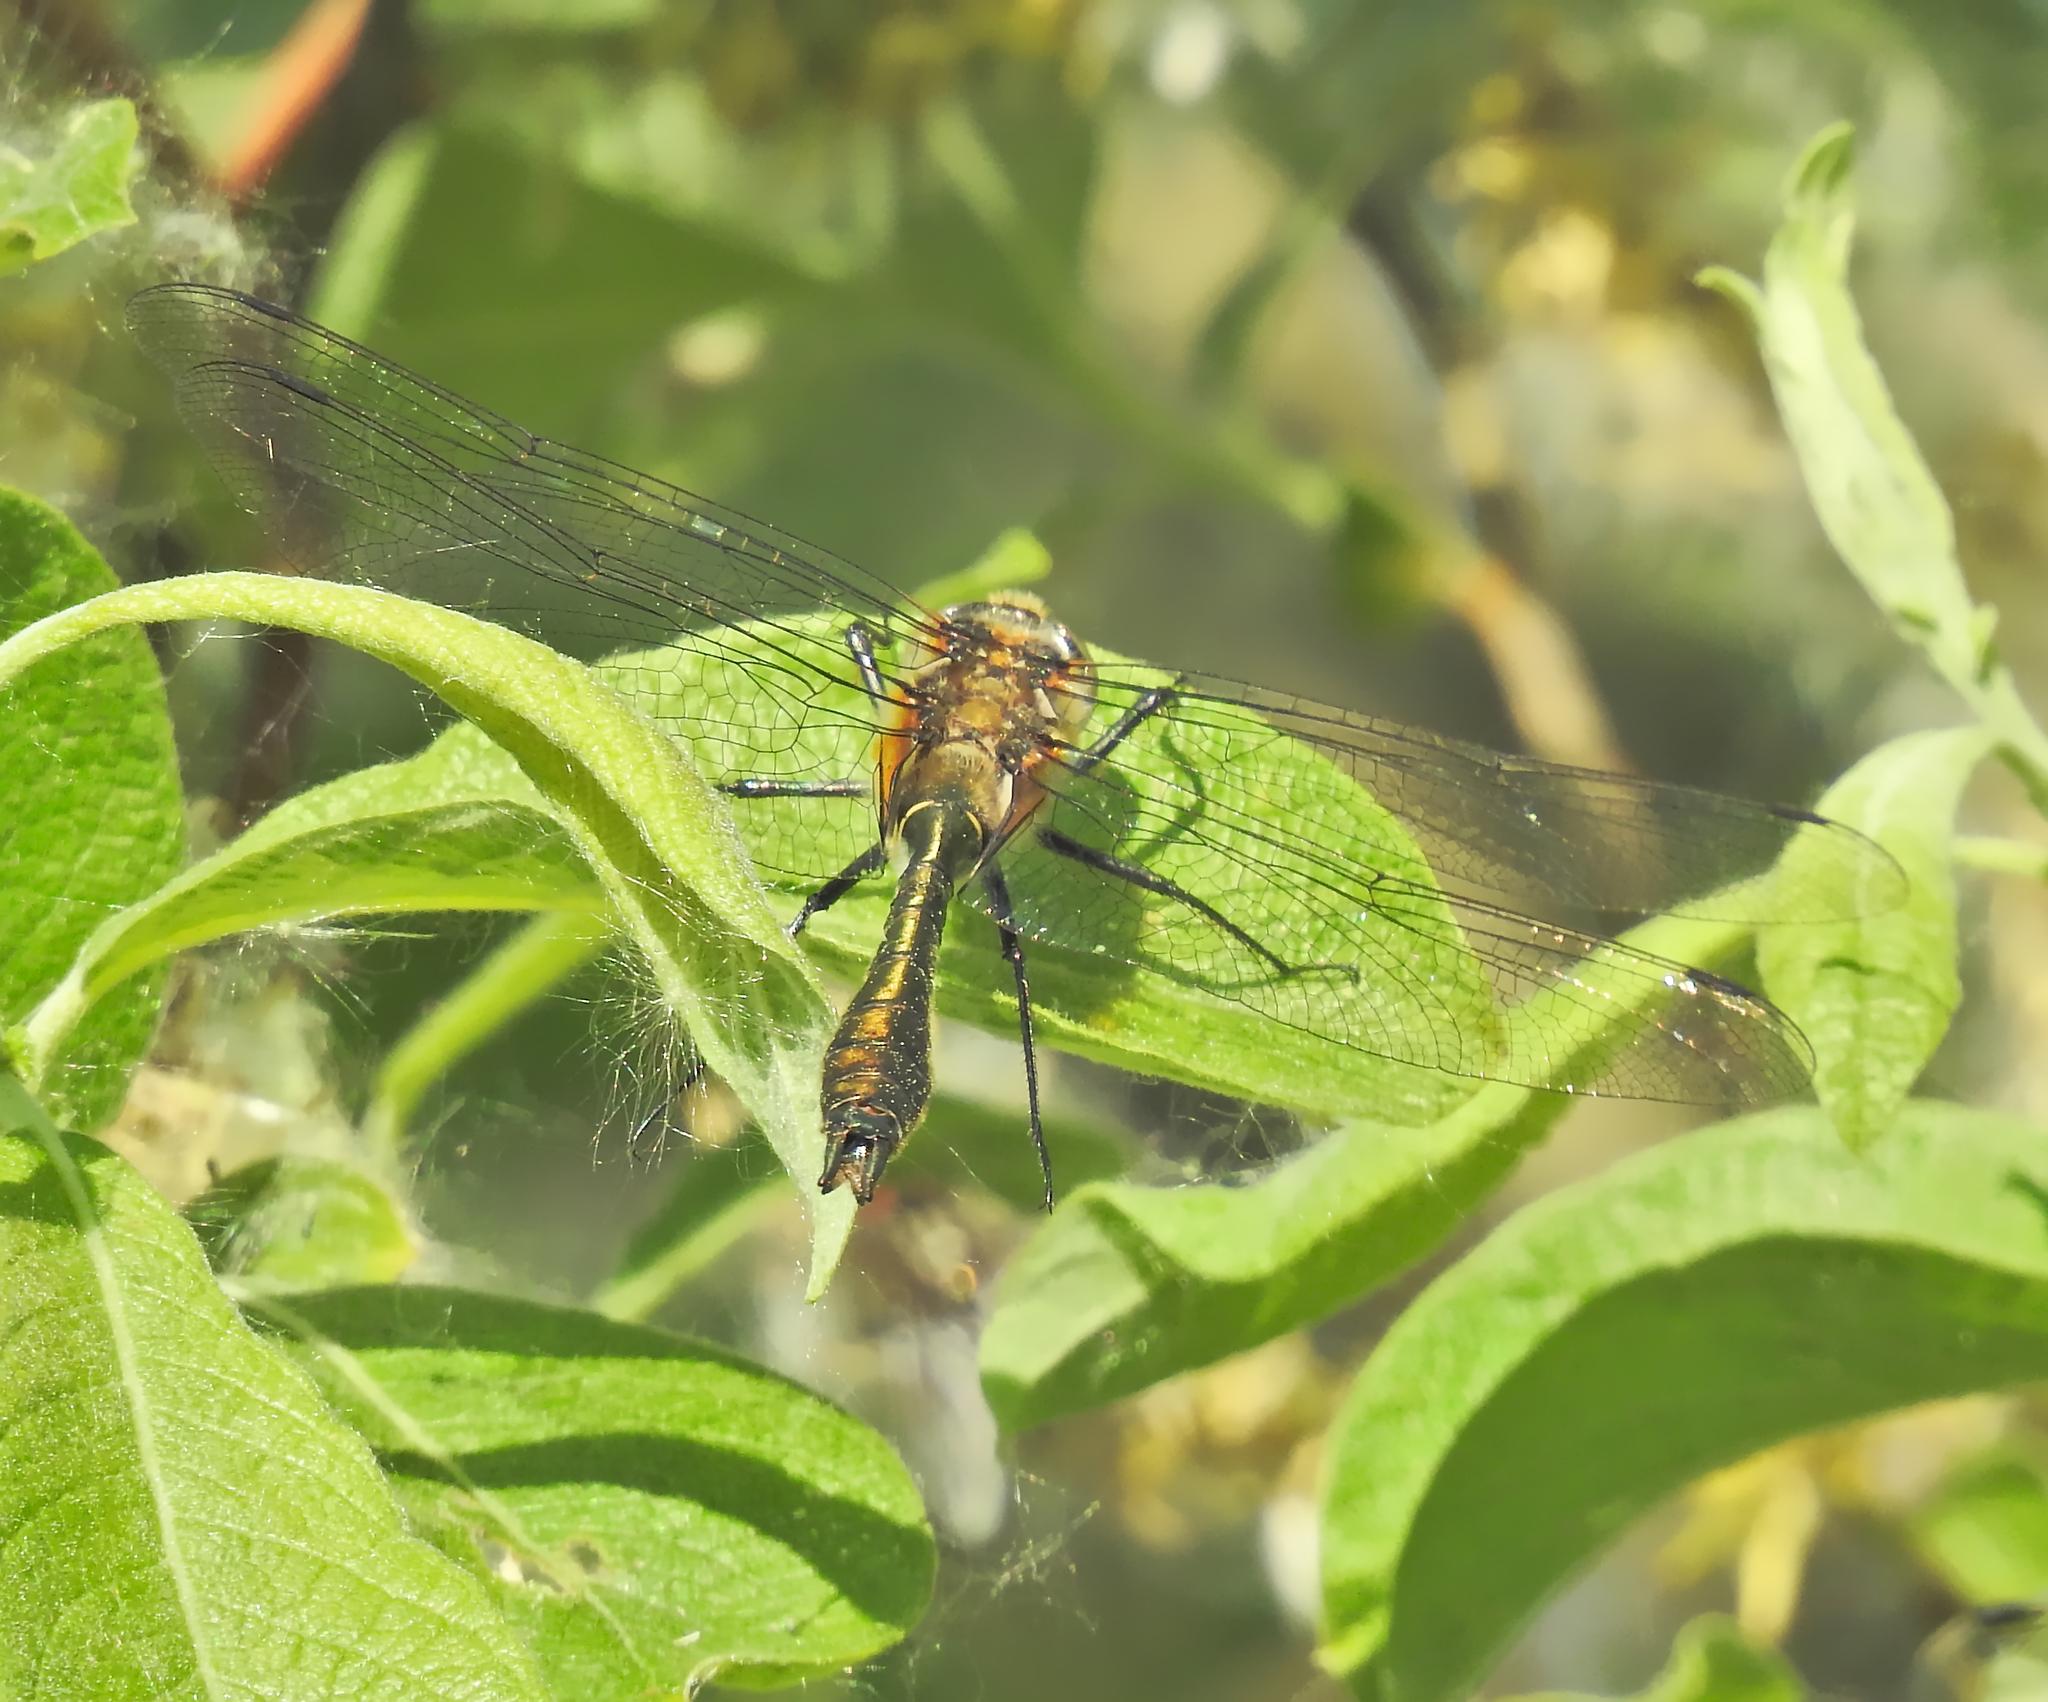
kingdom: Animalia
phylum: Arthropoda
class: Insecta
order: Odonata
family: Corduliidae
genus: Cordulia
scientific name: Cordulia aenea
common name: Downy emerald
